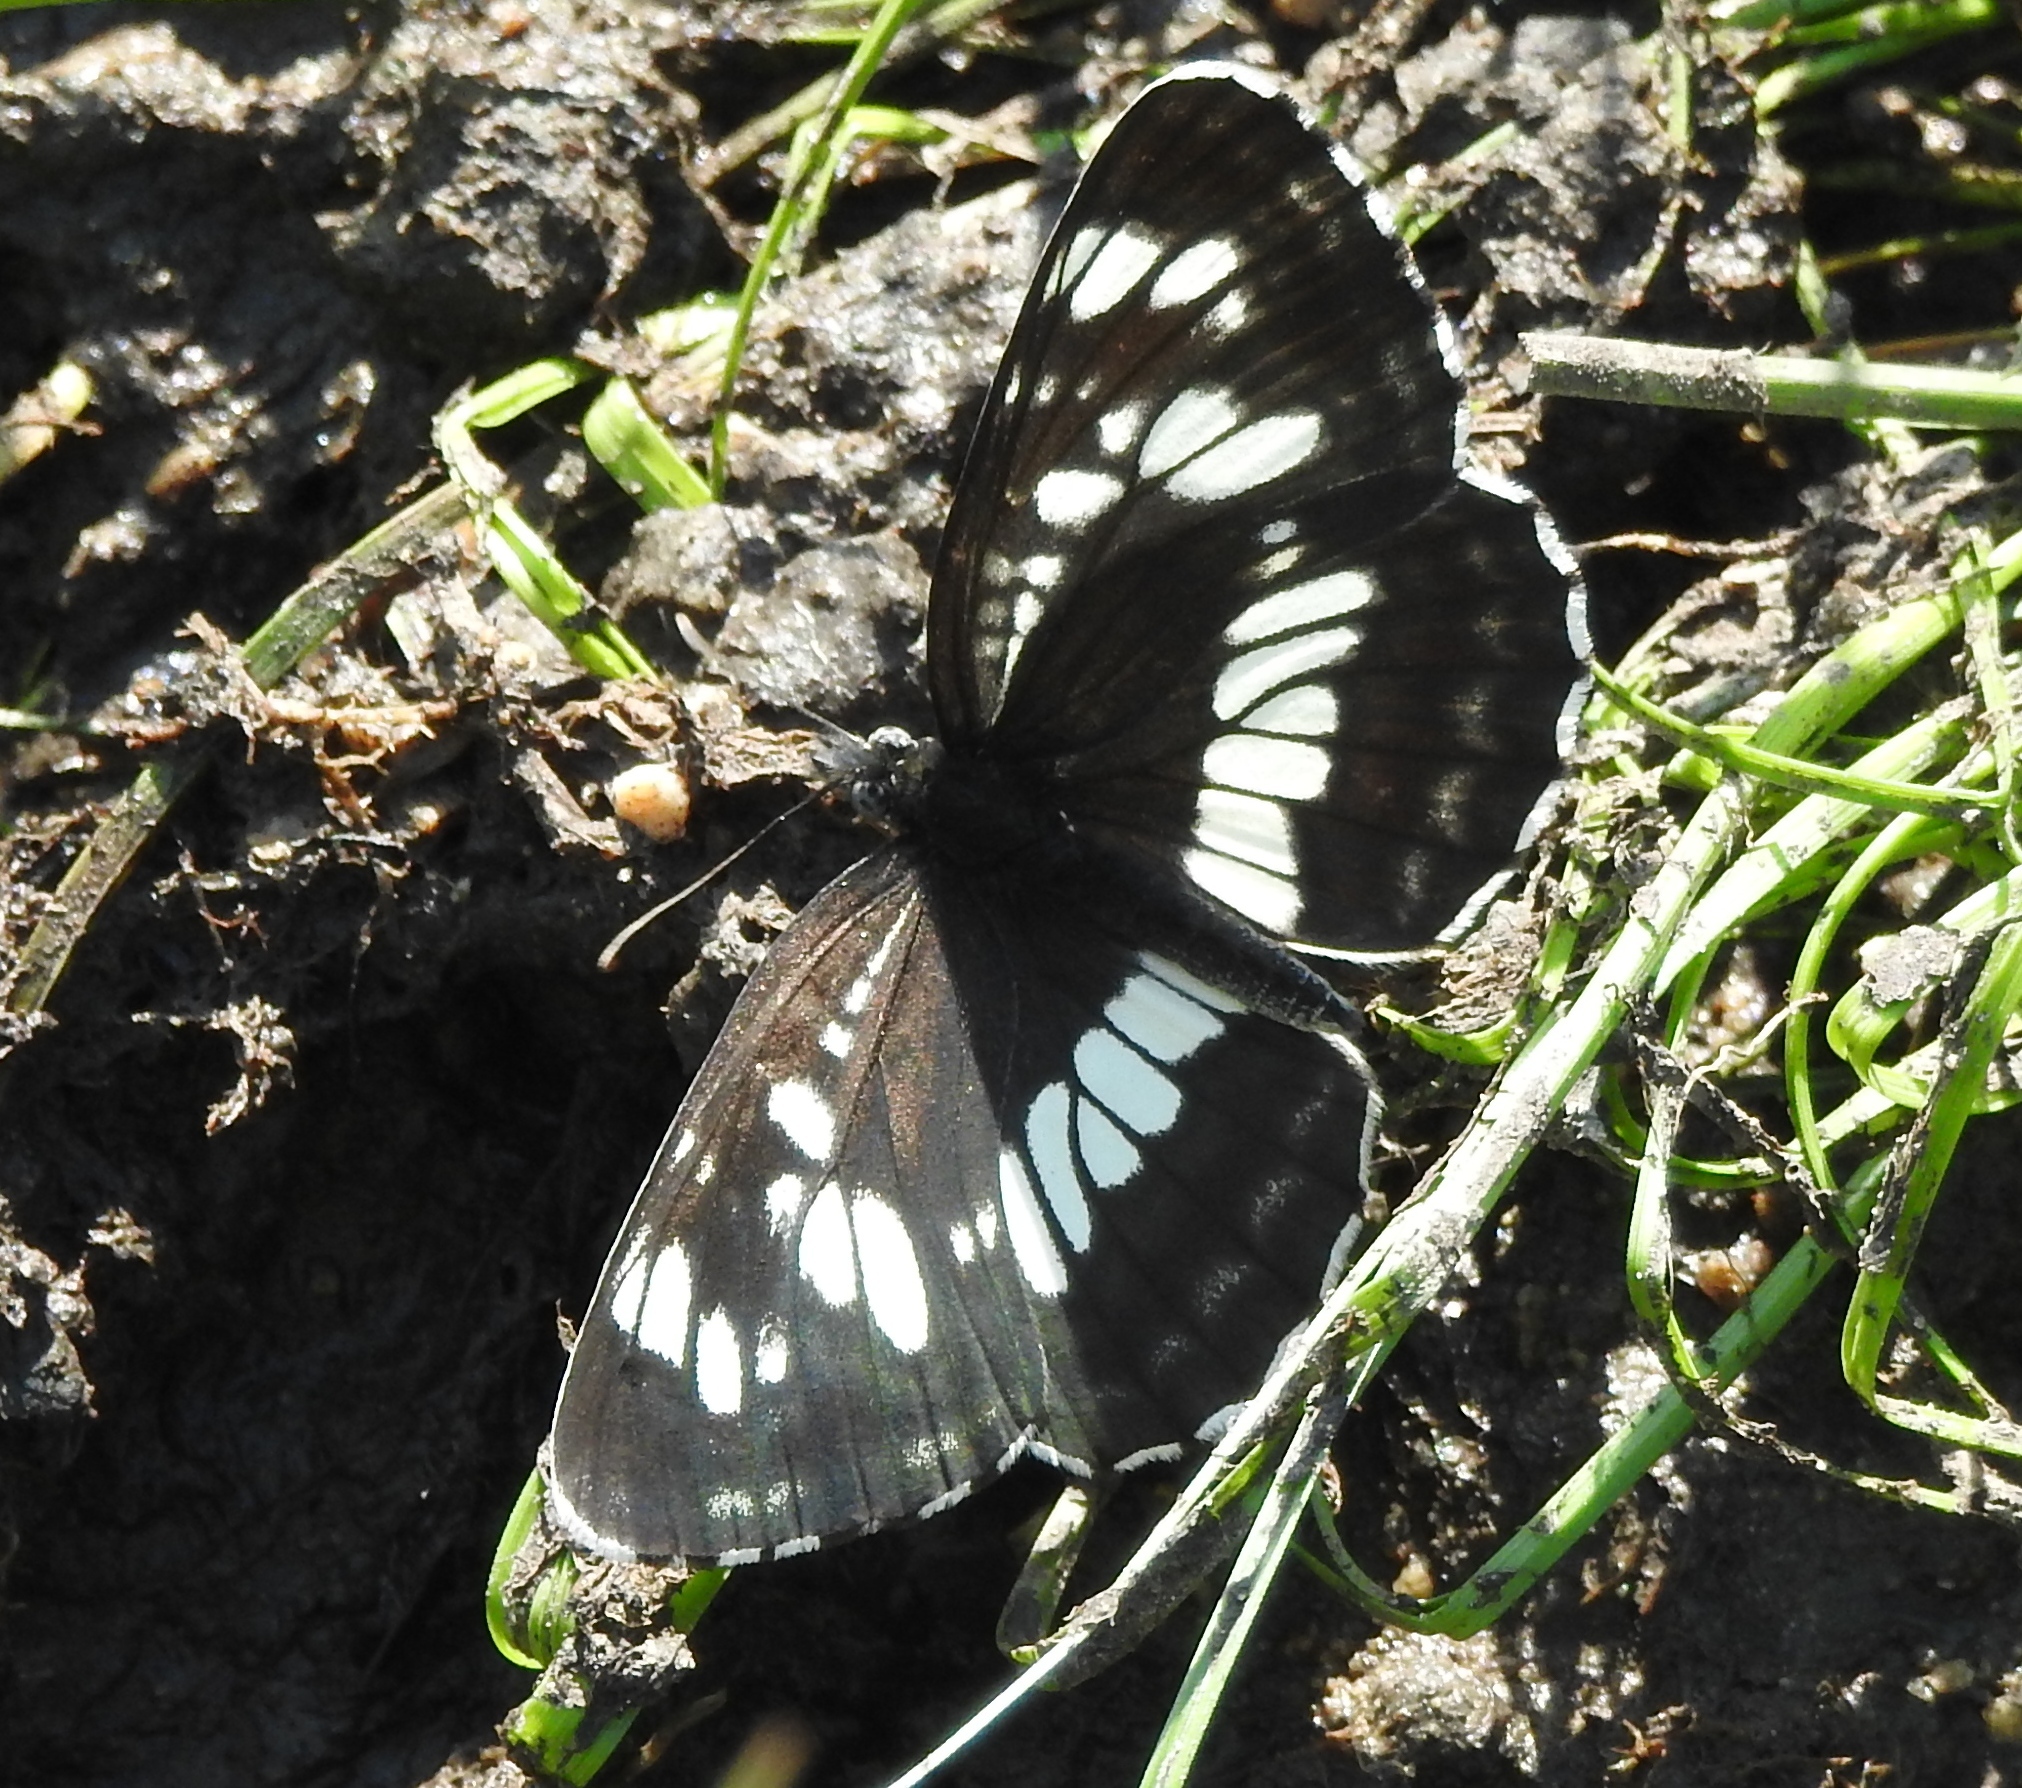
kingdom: Animalia
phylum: Arthropoda
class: Insecta
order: Lepidoptera
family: Nymphalidae
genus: Neptis
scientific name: Neptis rivularis
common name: Hungarian glider
